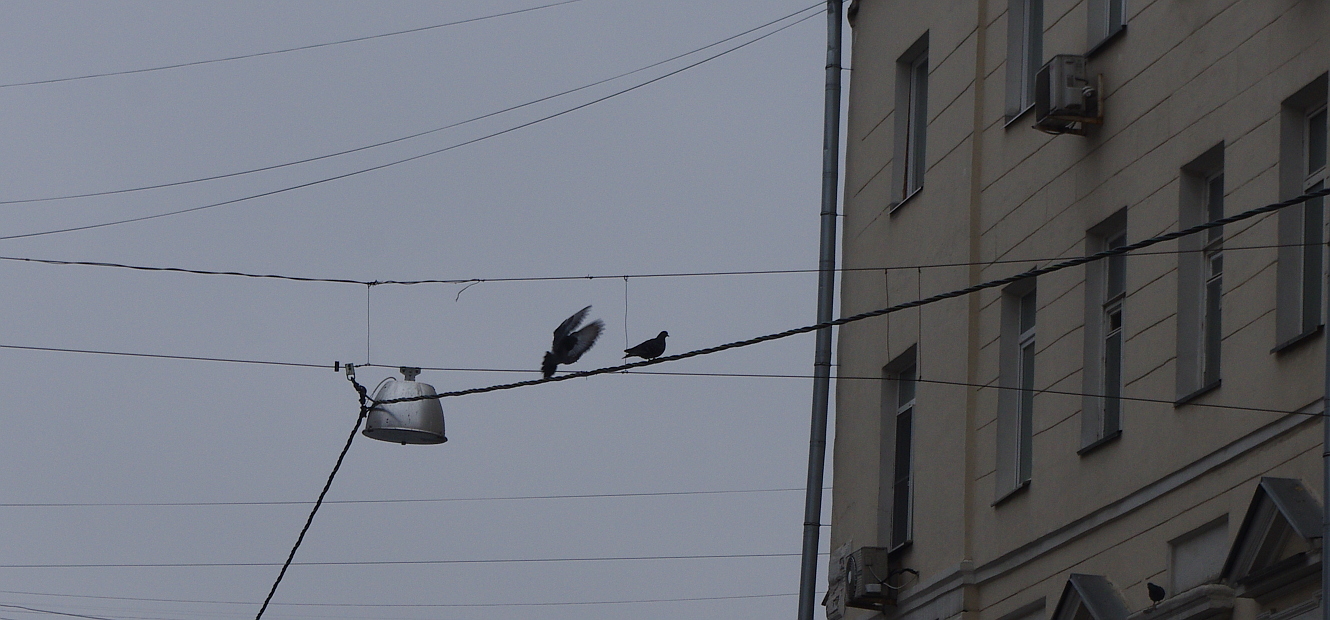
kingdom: Animalia
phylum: Chordata
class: Aves
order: Columbiformes
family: Columbidae
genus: Columba
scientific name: Columba livia
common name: Rock pigeon
